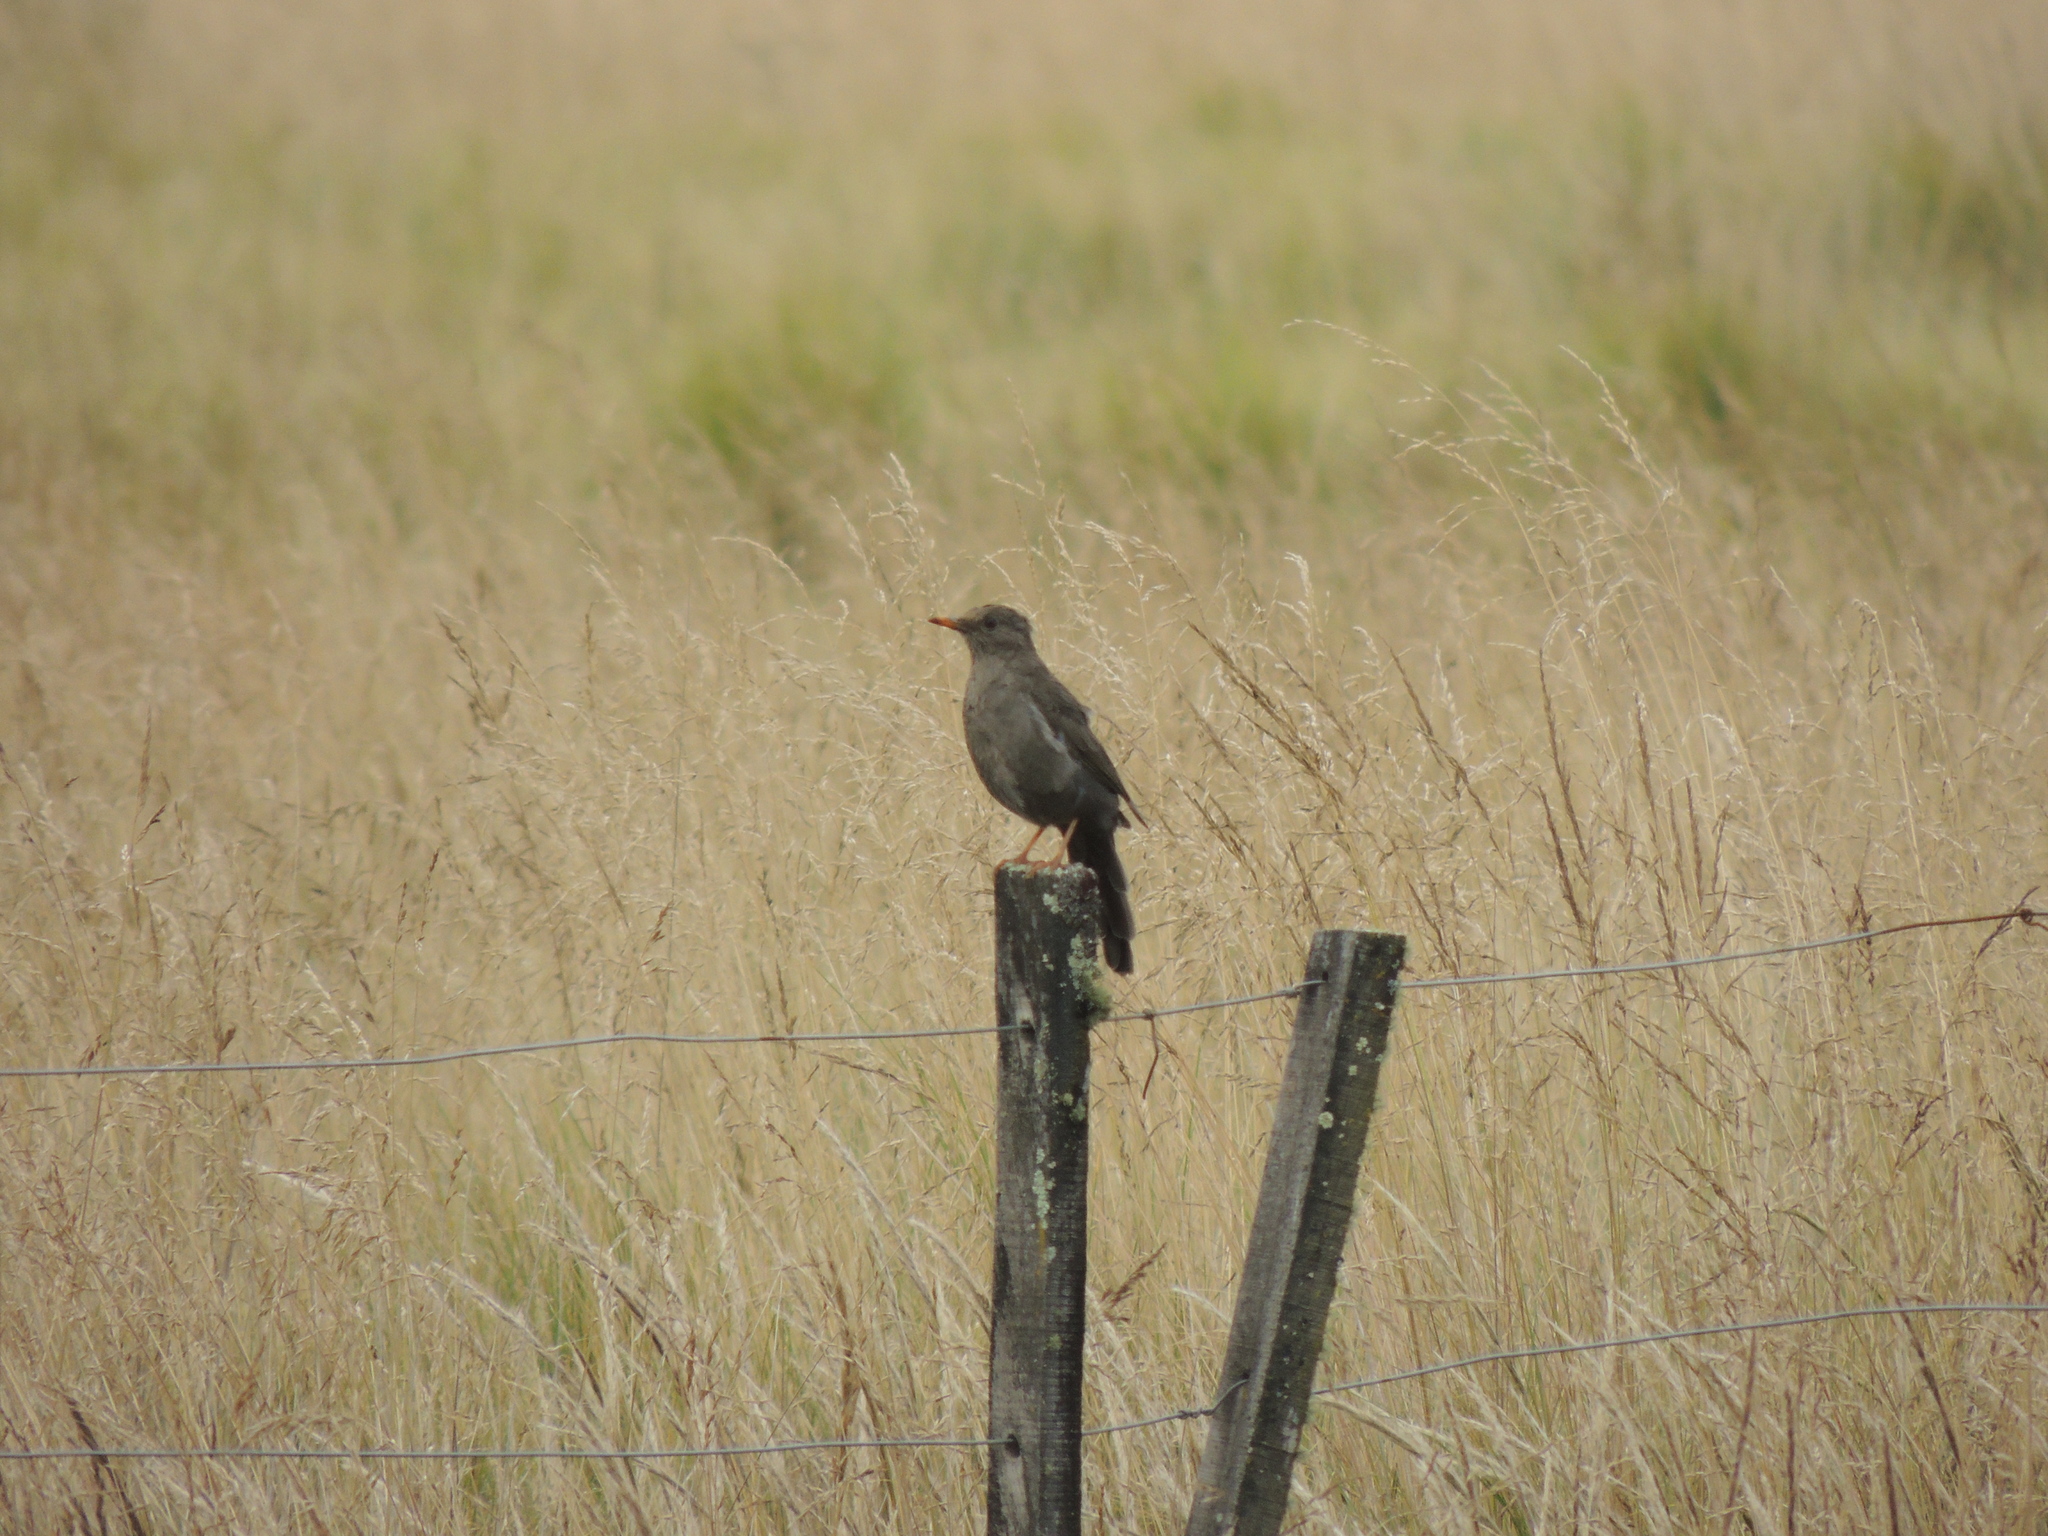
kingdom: Animalia
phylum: Chordata
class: Aves
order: Passeriformes
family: Turdidae
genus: Turdus
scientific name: Turdus chiguanco
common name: Chiguanco thrush
